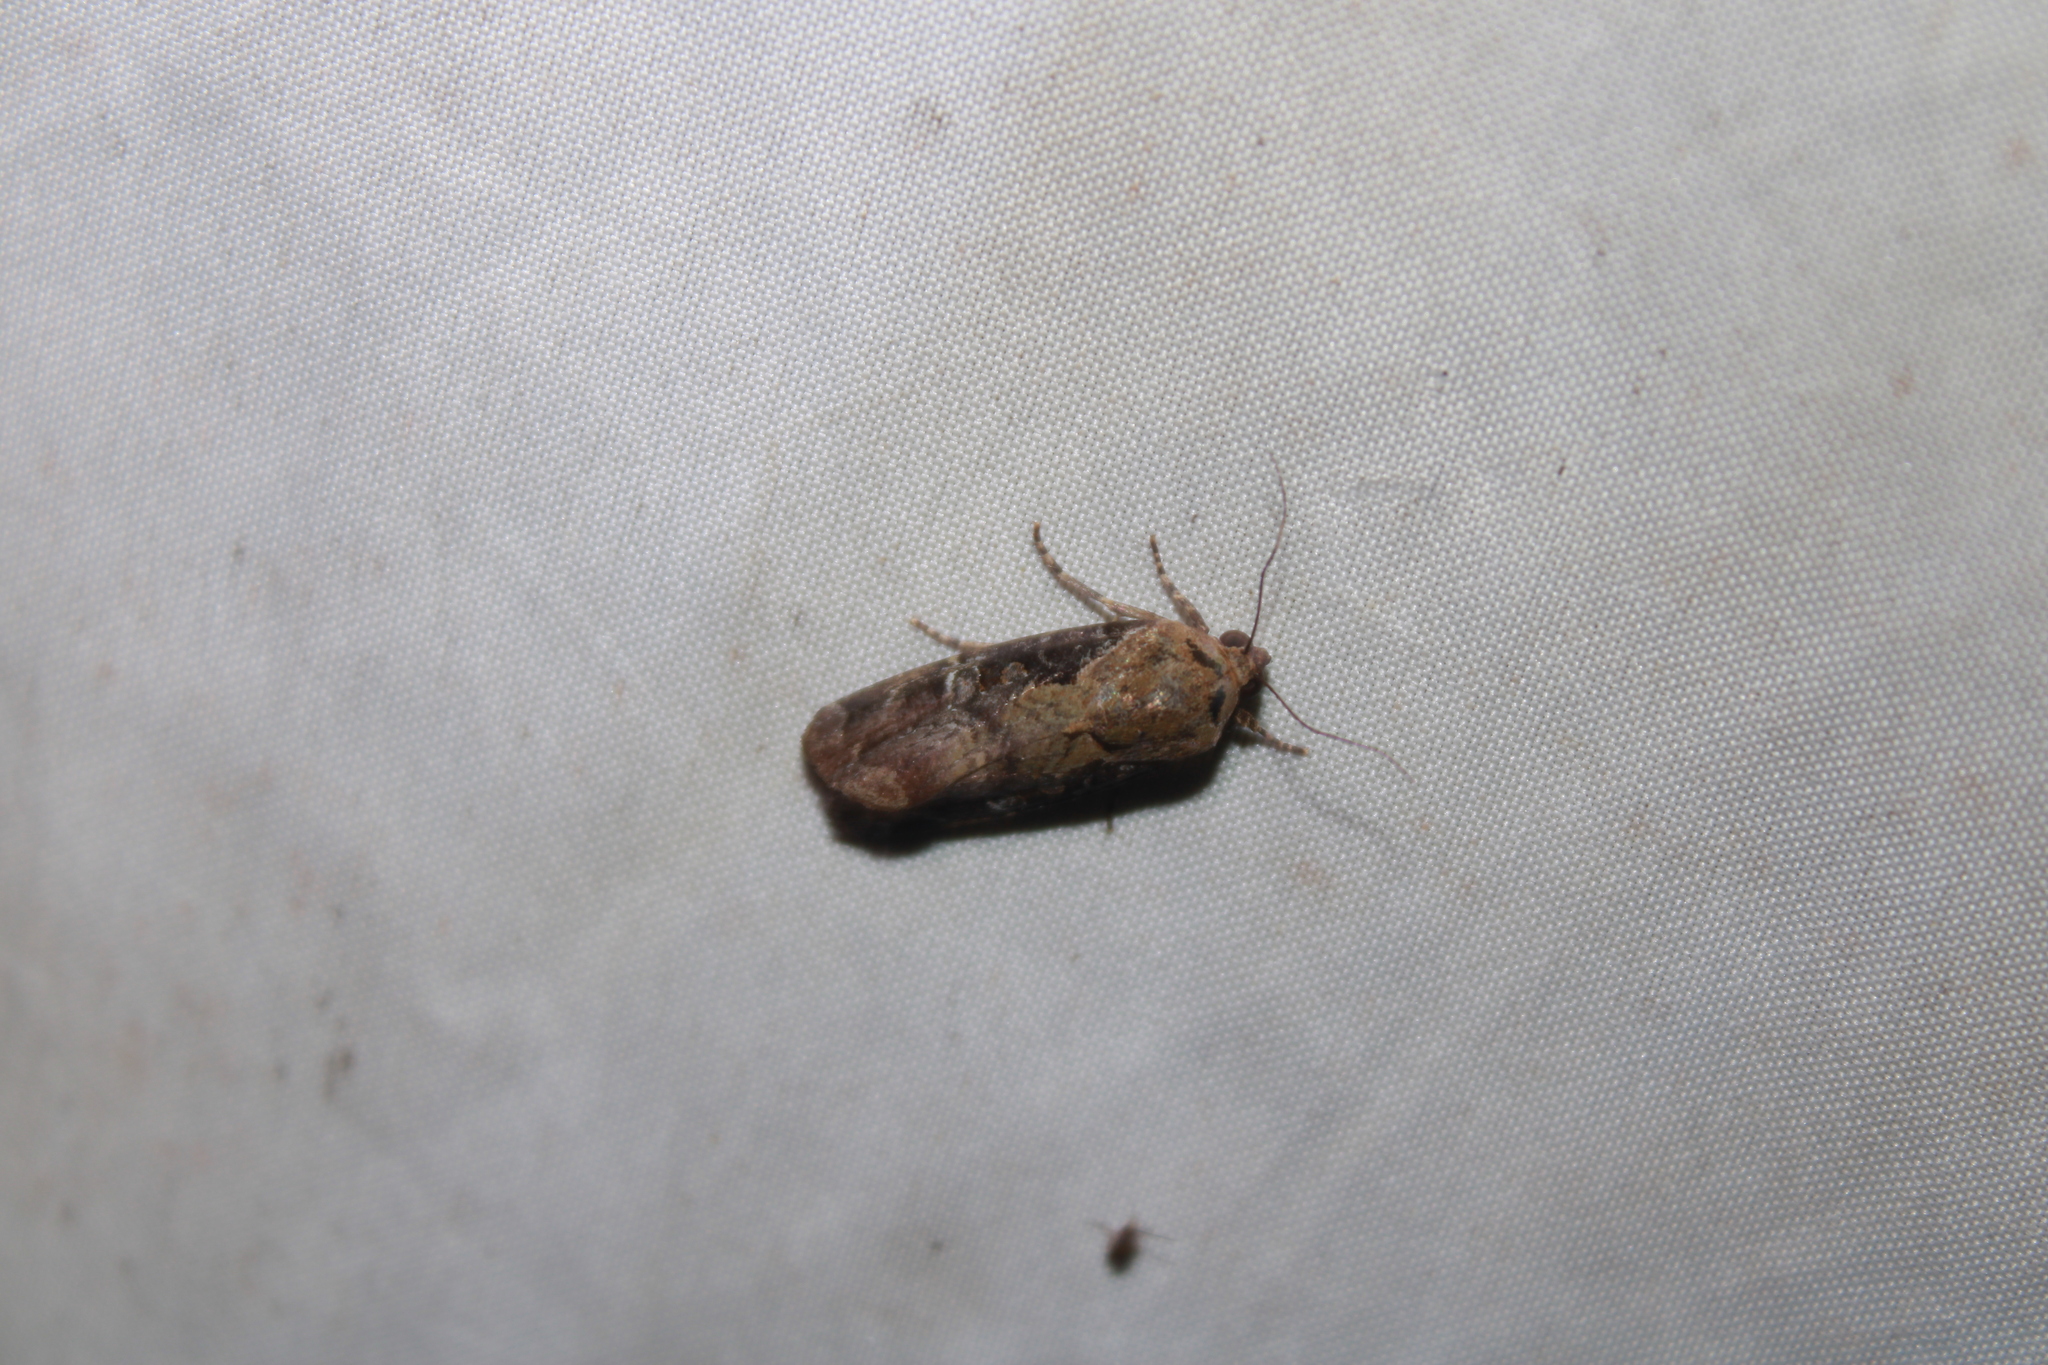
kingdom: Animalia
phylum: Arthropoda
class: Insecta
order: Lepidoptera
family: Noctuidae
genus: Magusa
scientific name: Magusa orbifera
